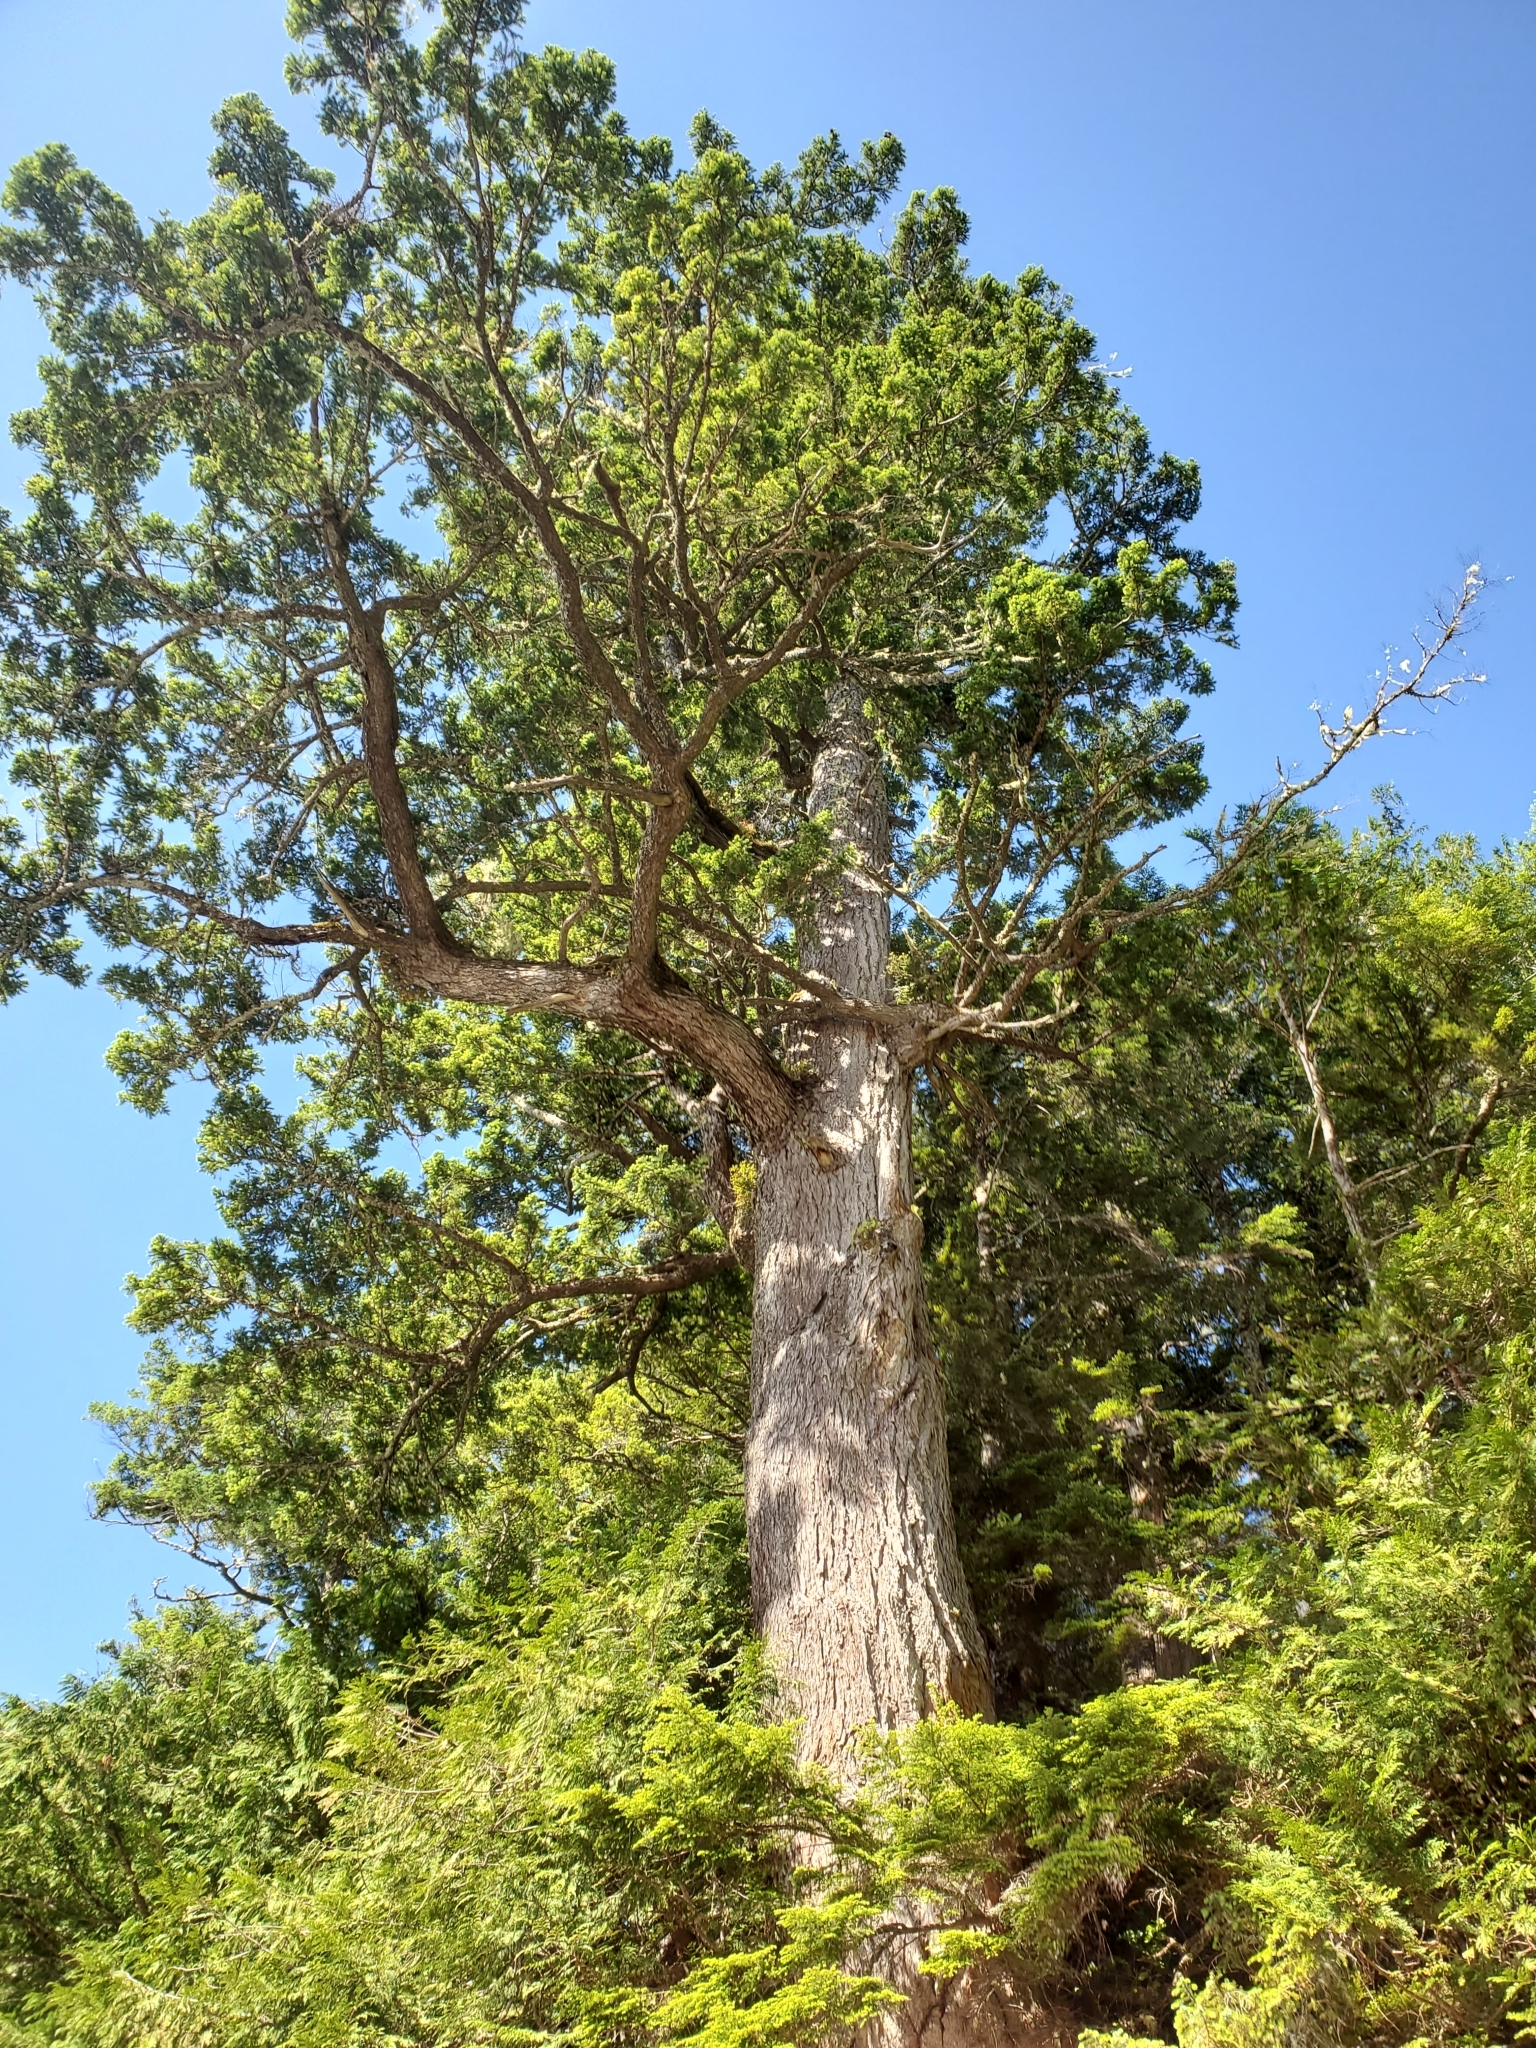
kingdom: Plantae
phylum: Tracheophyta
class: Pinopsida
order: Pinales
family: Pinaceae
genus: Pseudotsuga
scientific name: Pseudotsuga menziesii
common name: Douglas fir
